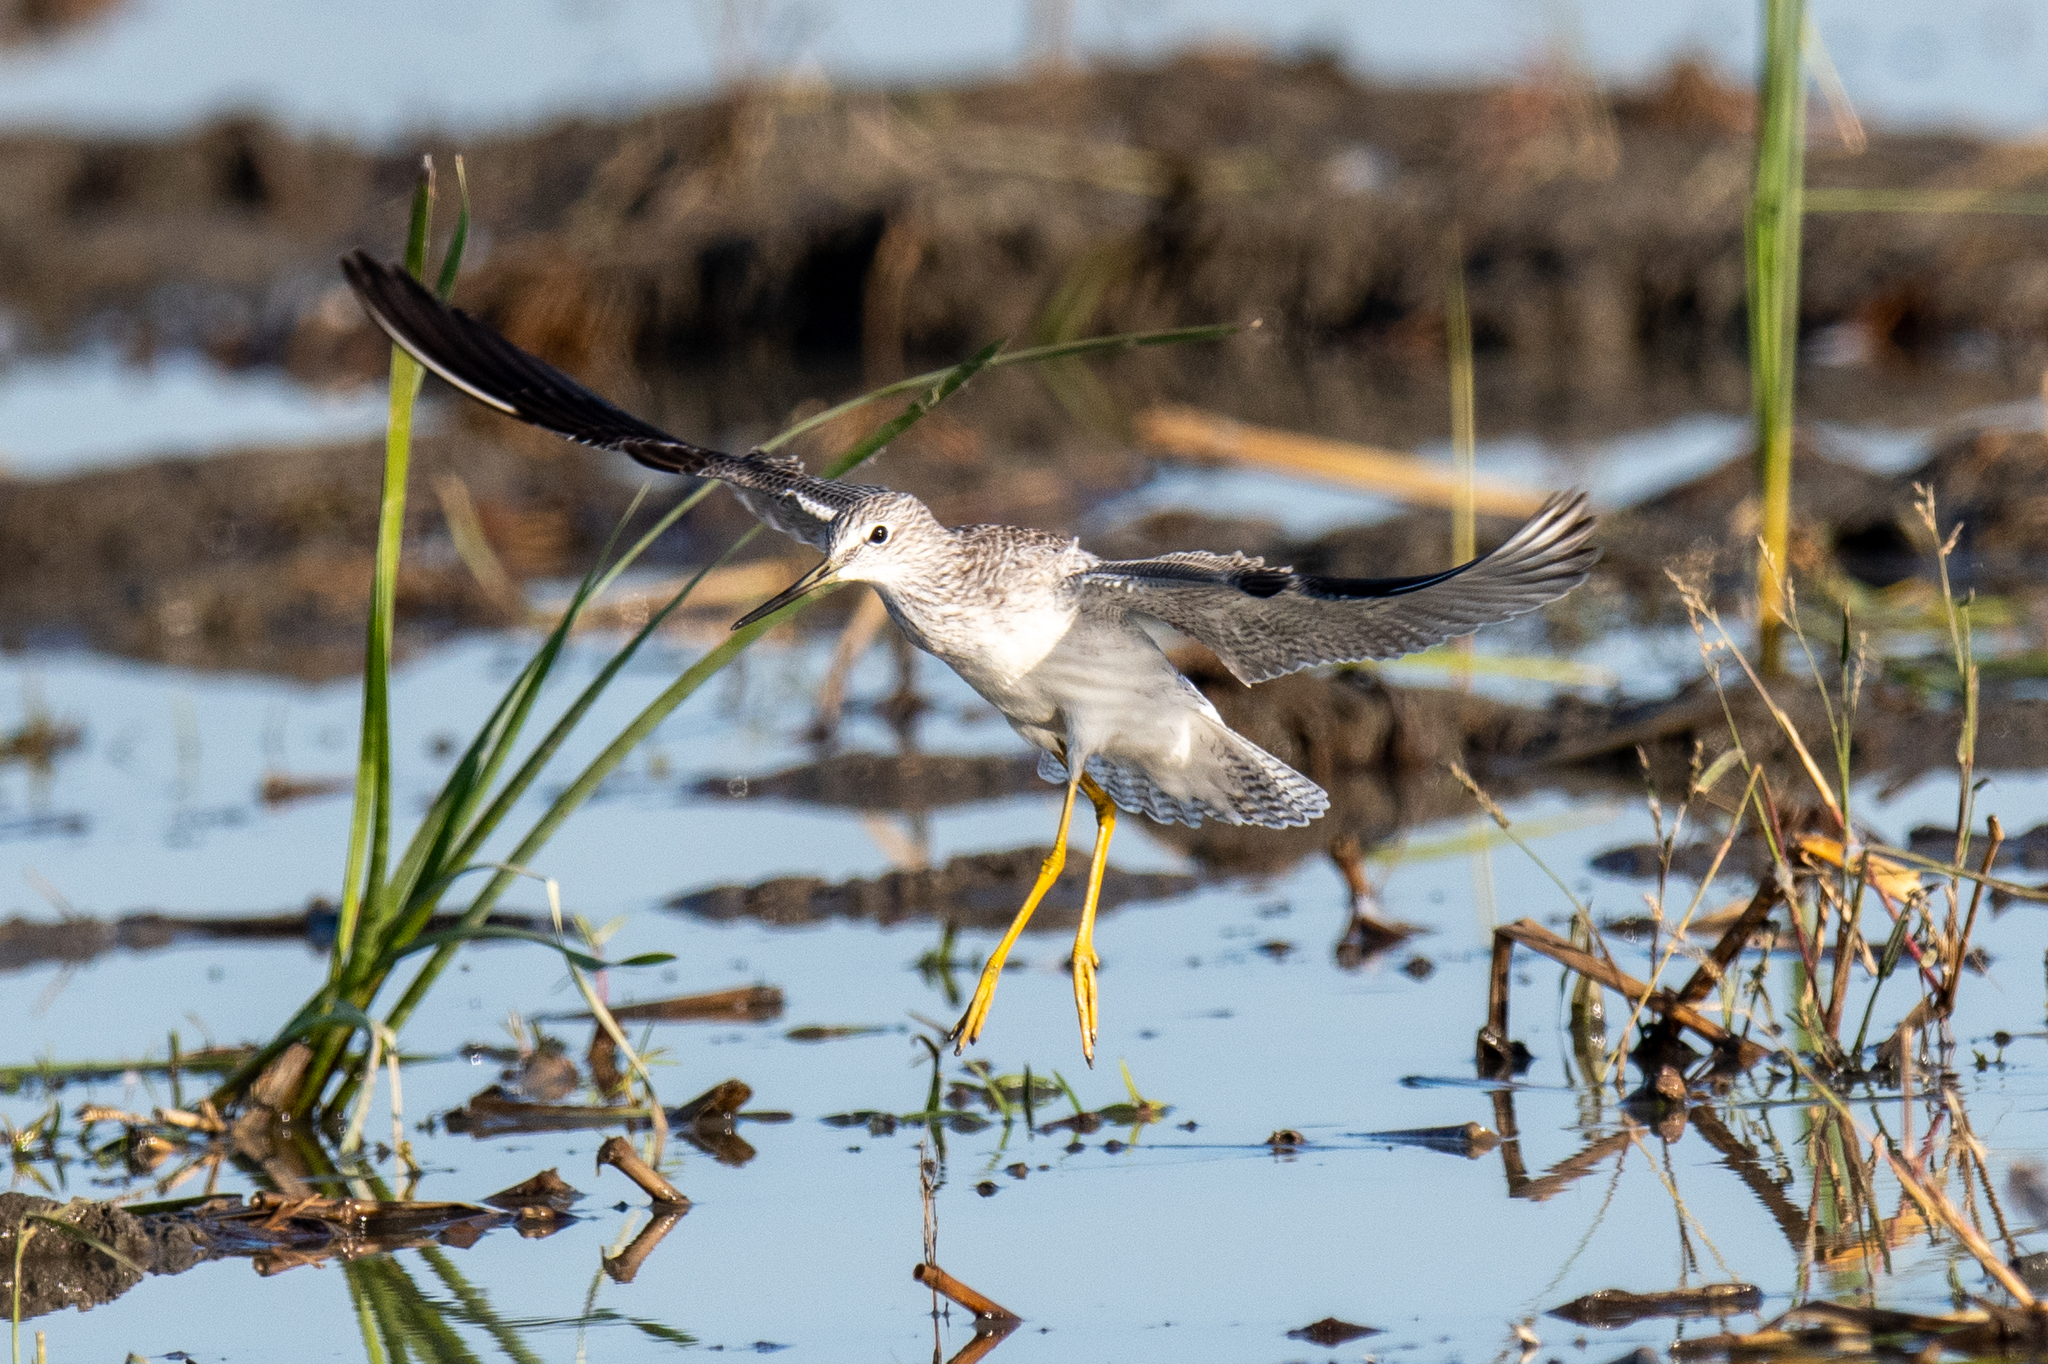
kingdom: Animalia
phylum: Chordata
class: Aves
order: Charadriiformes
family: Scolopacidae
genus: Tringa
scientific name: Tringa melanoleuca
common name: Greater yellowlegs
